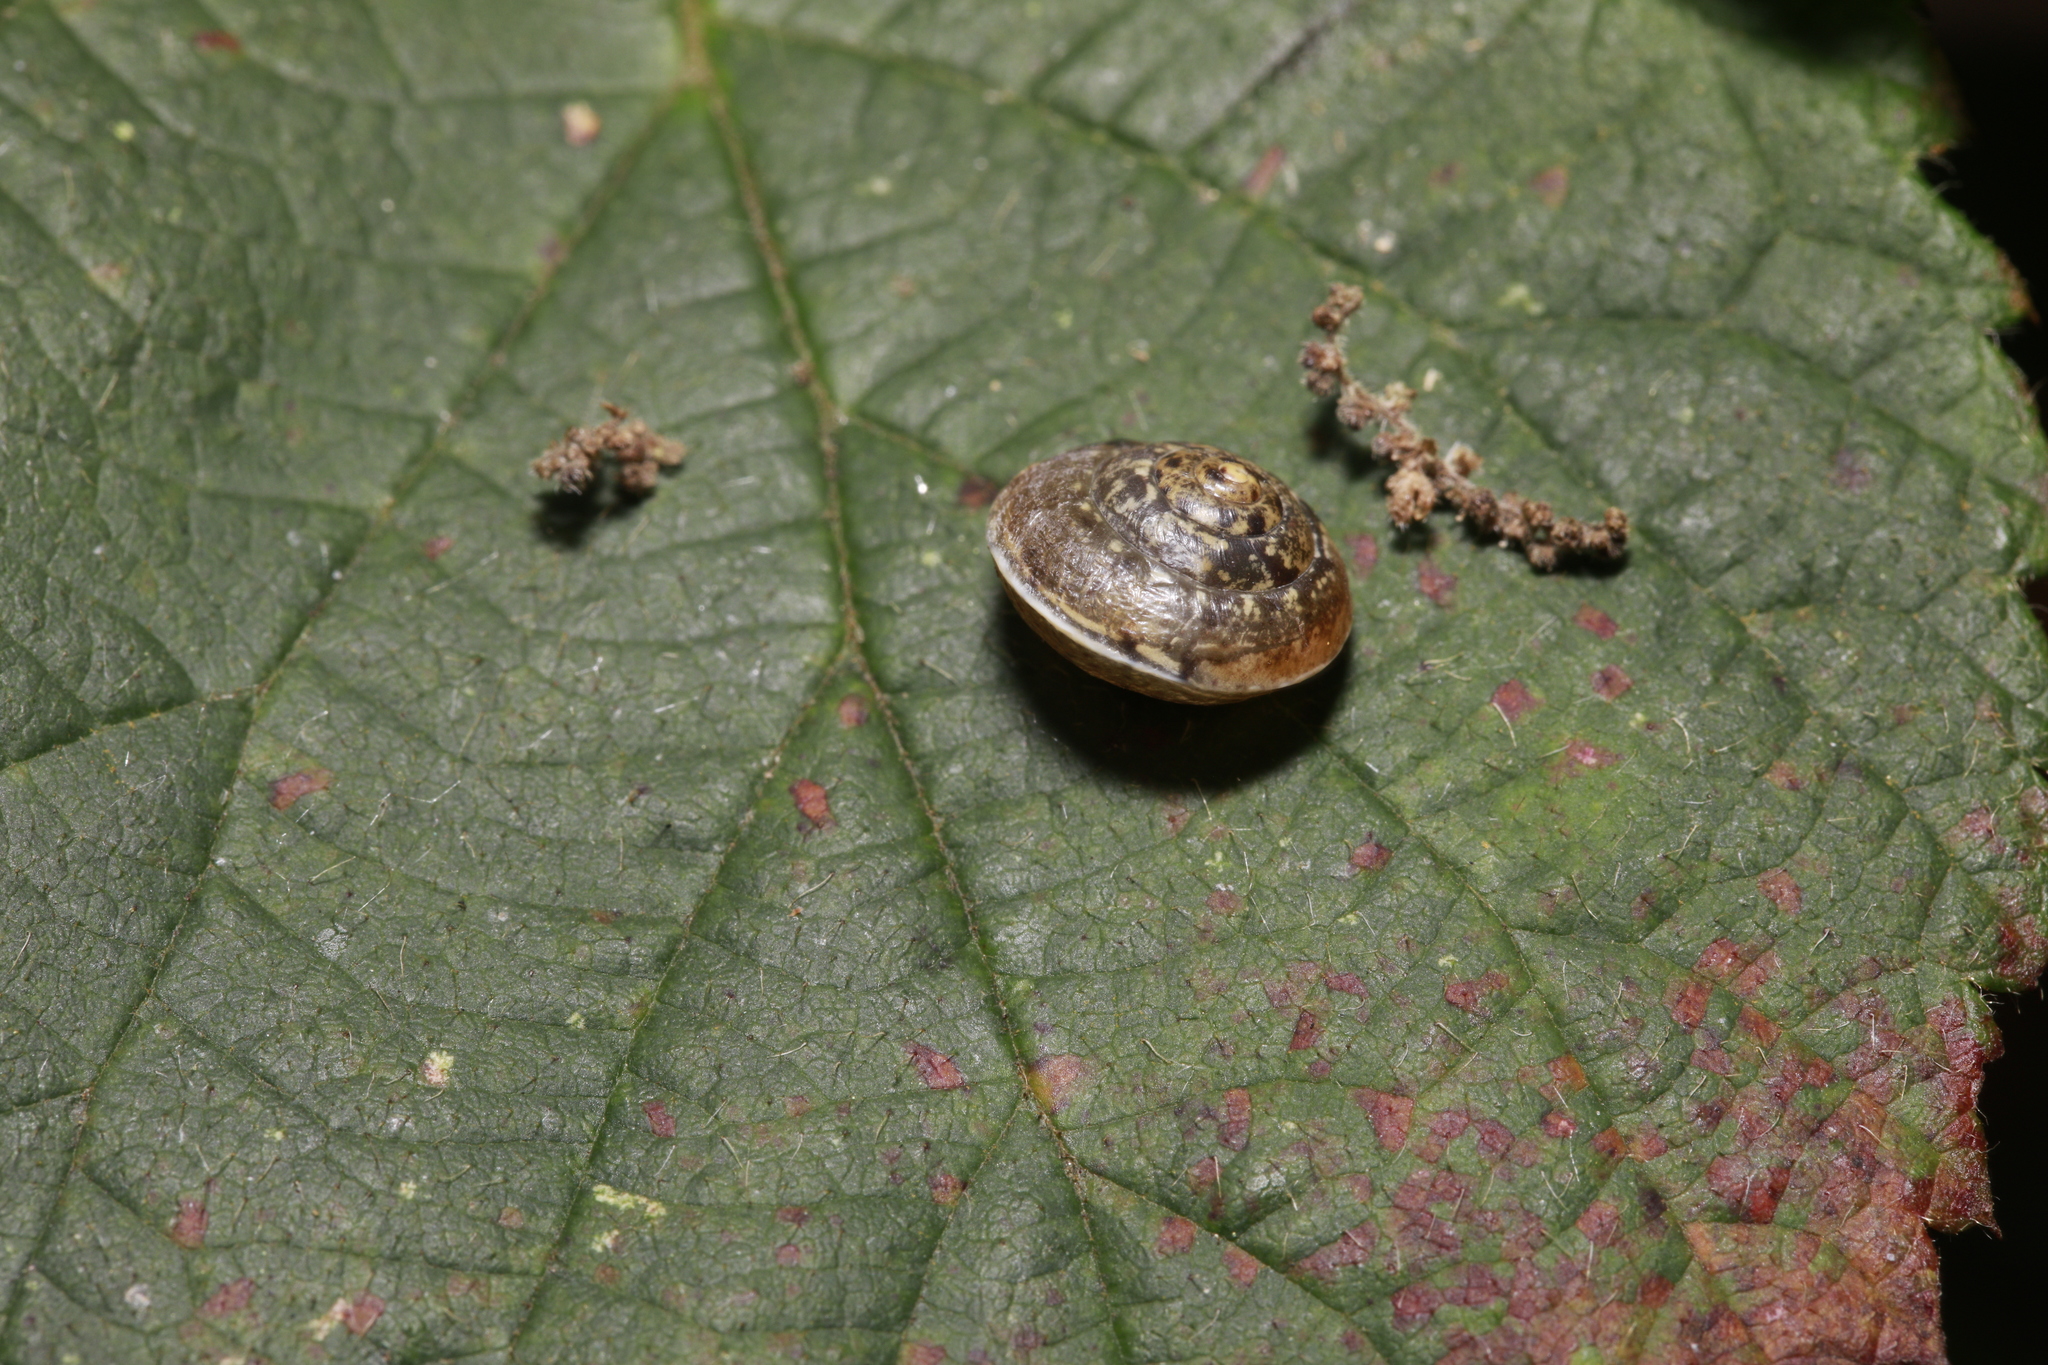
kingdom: Animalia
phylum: Mollusca
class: Gastropoda
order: Stylommatophora
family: Hygromiidae
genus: Hygromia
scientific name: Hygromia cinctella
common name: Girdled snail
